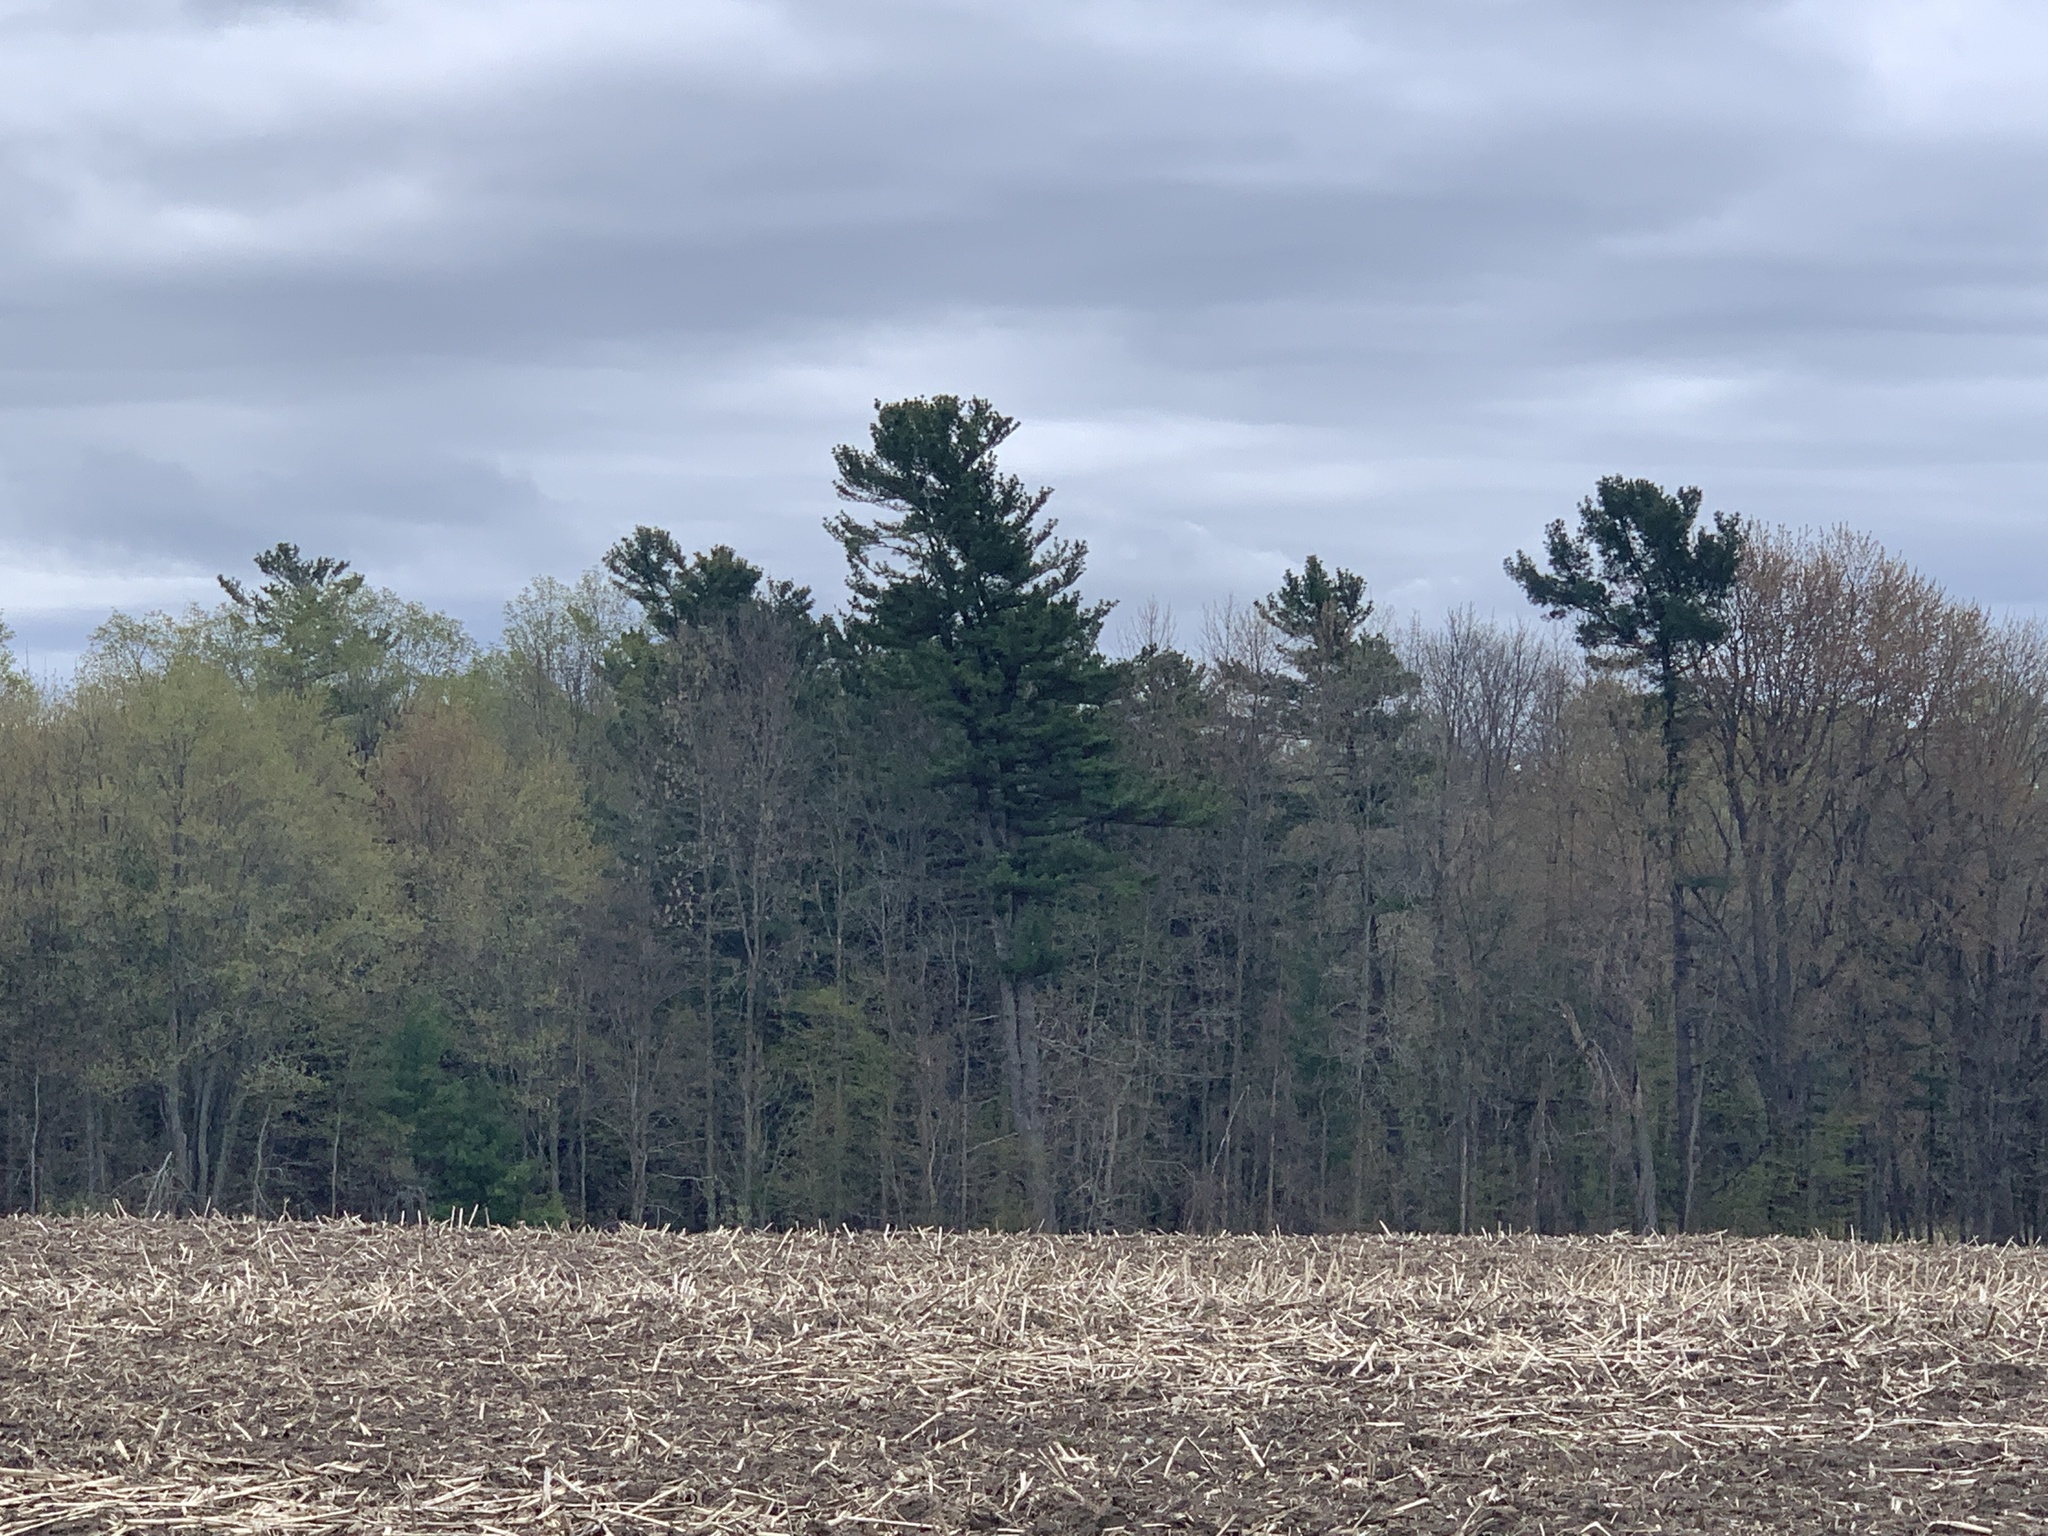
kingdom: Plantae
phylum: Tracheophyta
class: Pinopsida
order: Pinales
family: Pinaceae
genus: Pinus
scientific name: Pinus strobus
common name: Weymouth pine
